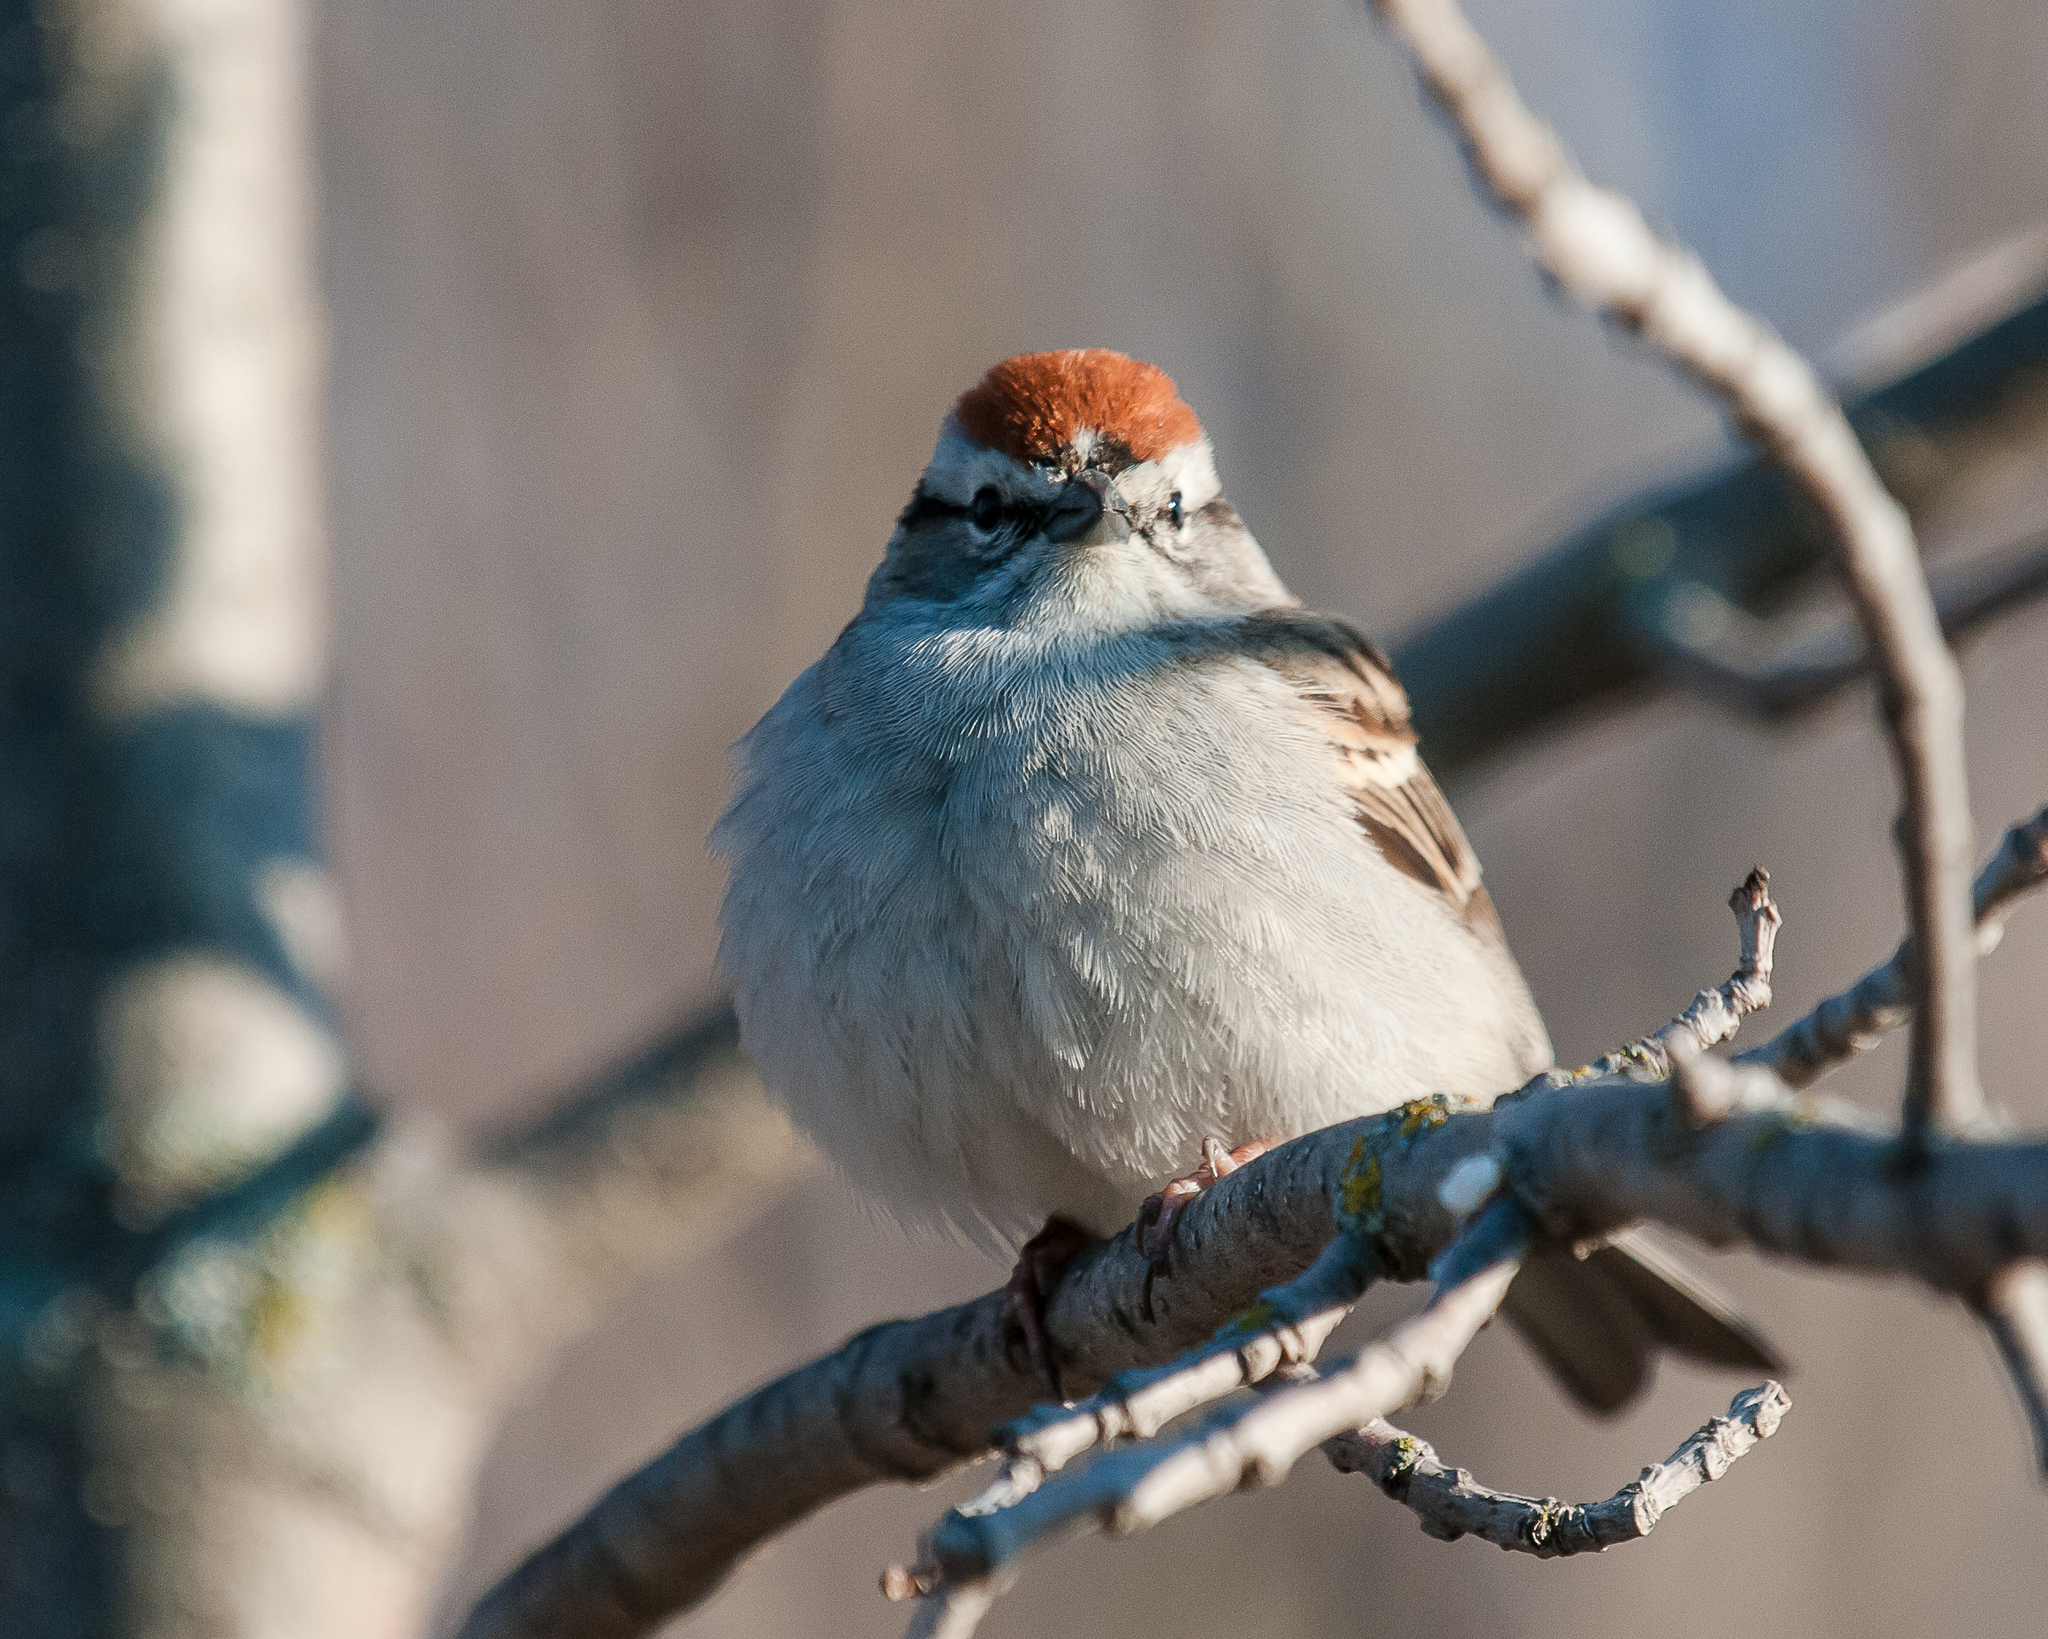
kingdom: Animalia
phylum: Chordata
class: Aves
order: Passeriformes
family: Passerellidae
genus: Spizella
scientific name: Spizella passerina
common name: Chipping sparrow
